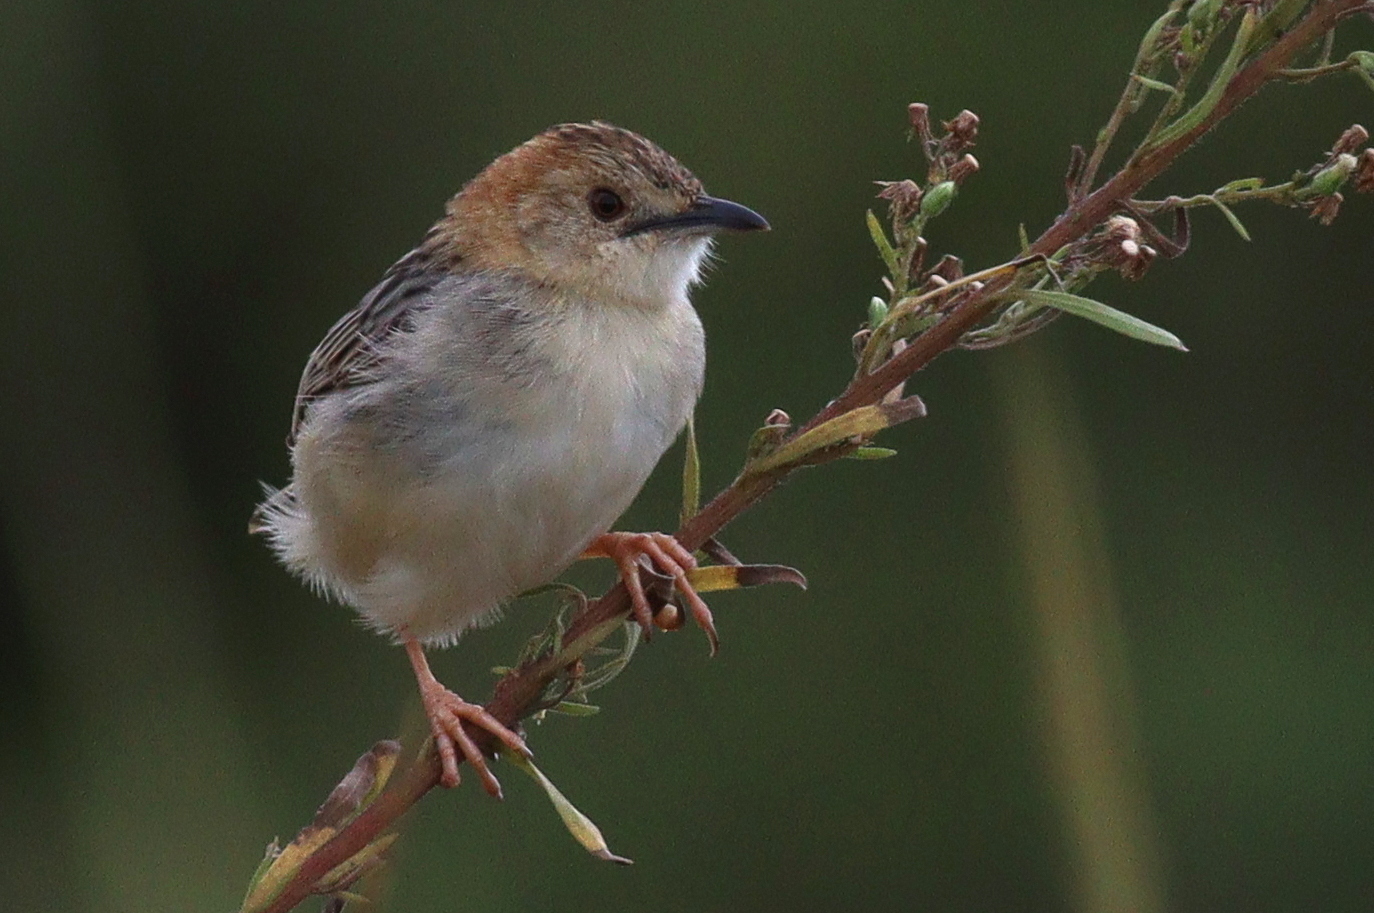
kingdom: Animalia
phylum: Chordata
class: Aves
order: Passeriformes
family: Cisticolidae
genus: Cisticola
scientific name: Cisticola robustus
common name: Stout cisticola
